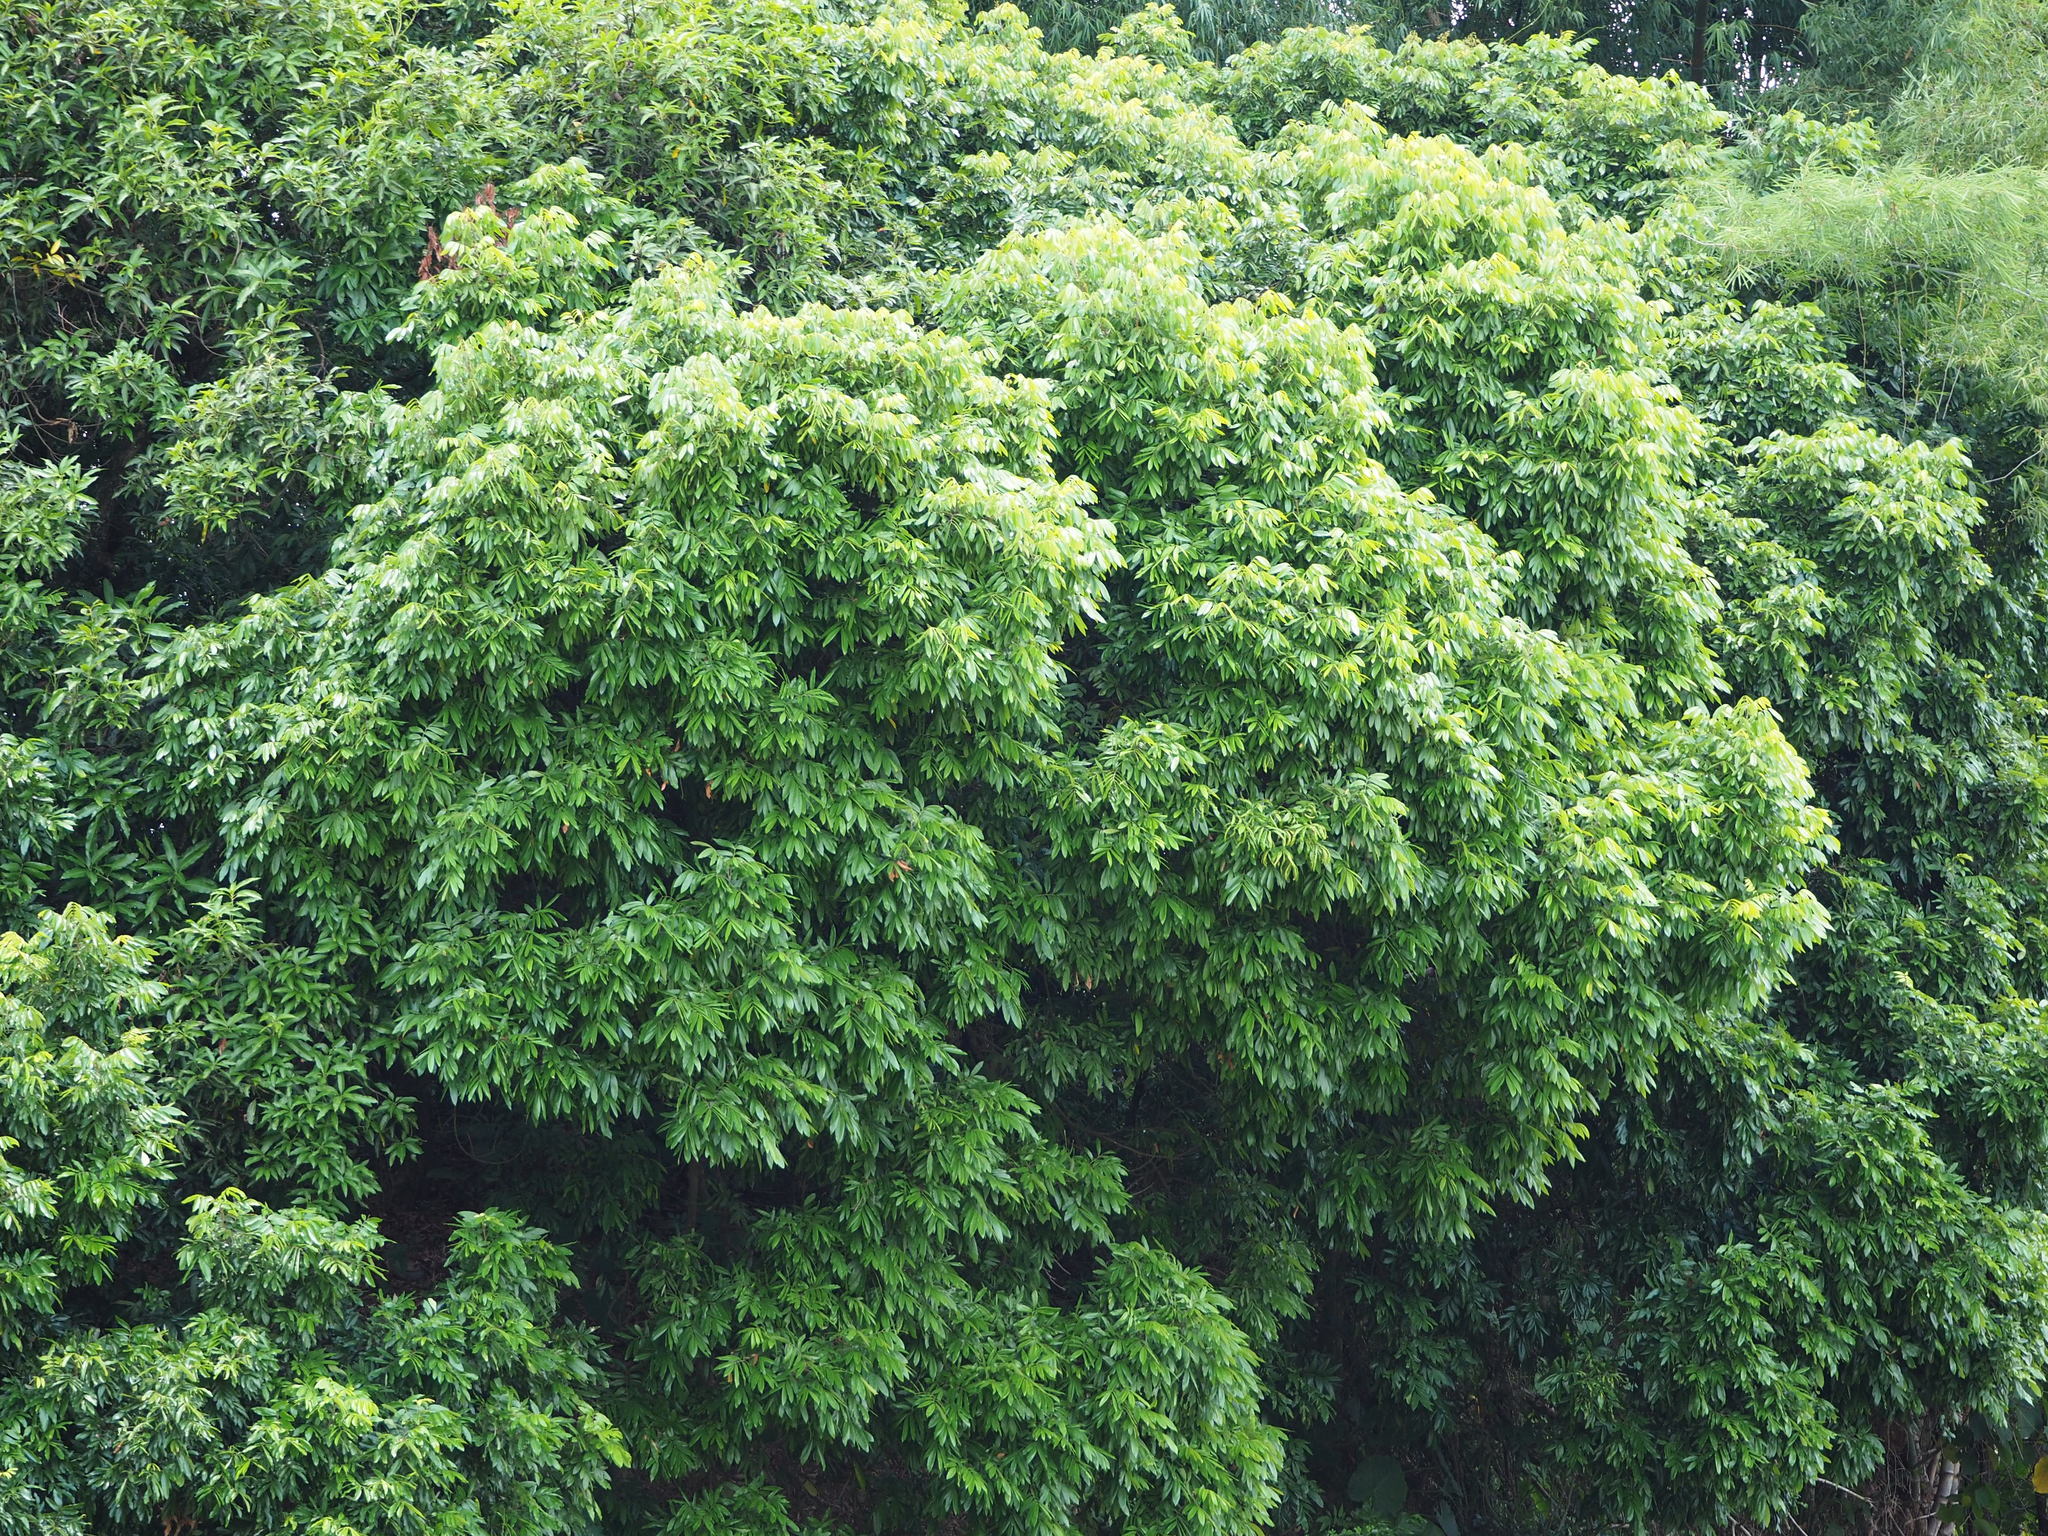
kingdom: Plantae
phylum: Tracheophyta
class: Magnoliopsida
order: Sapindales
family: Sapindaceae
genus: Dimocarpus
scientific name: Dimocarpus longan
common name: Longan
